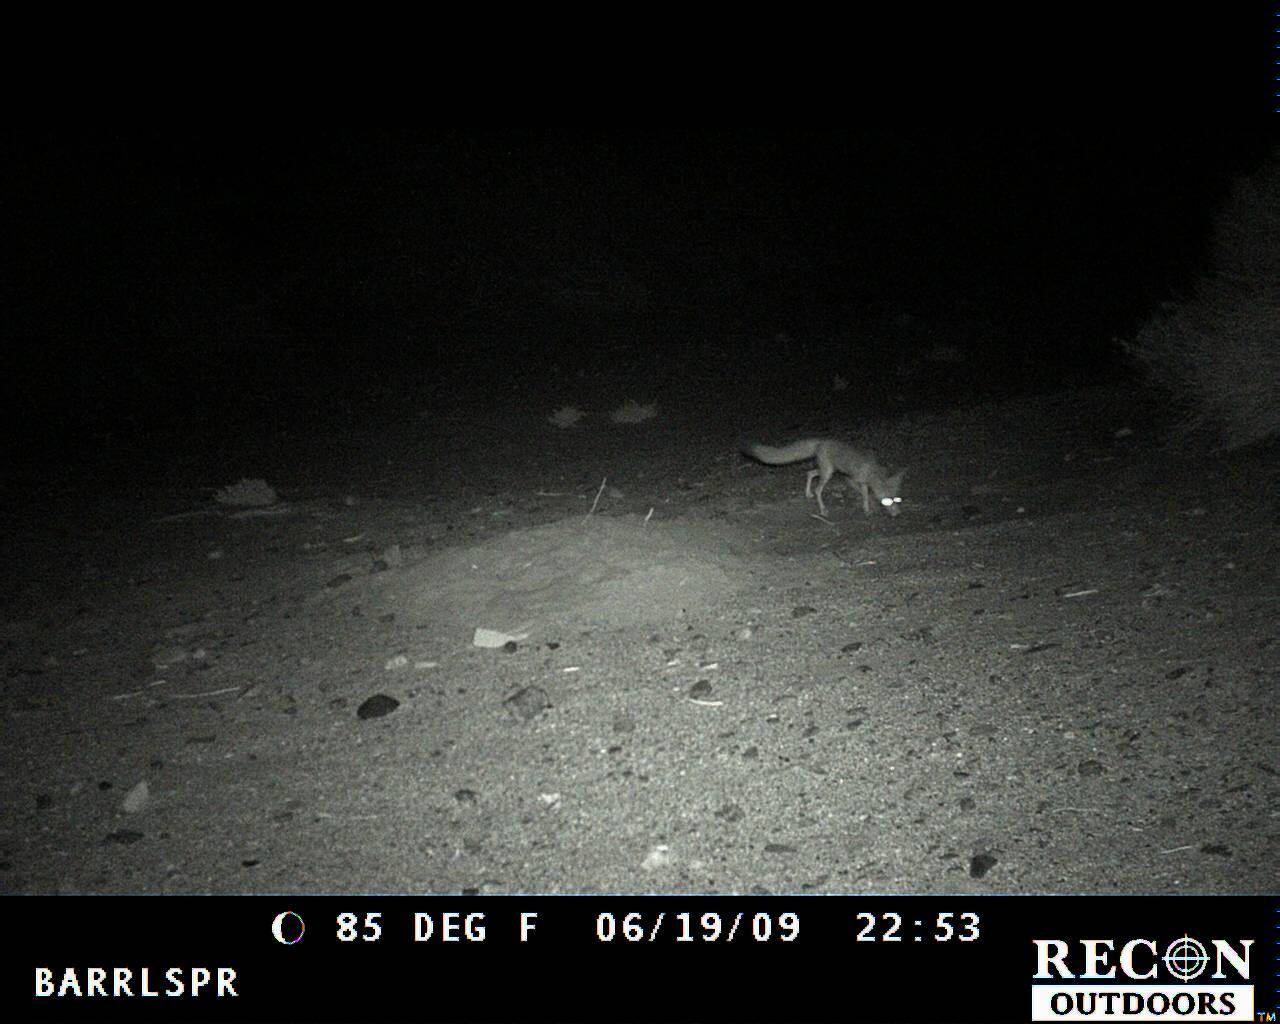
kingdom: Animalia
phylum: Chordata
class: Mammalia
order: Carnivora
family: Canidae
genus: Vulpes
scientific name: Vulpes macrotis
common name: Kit fox
